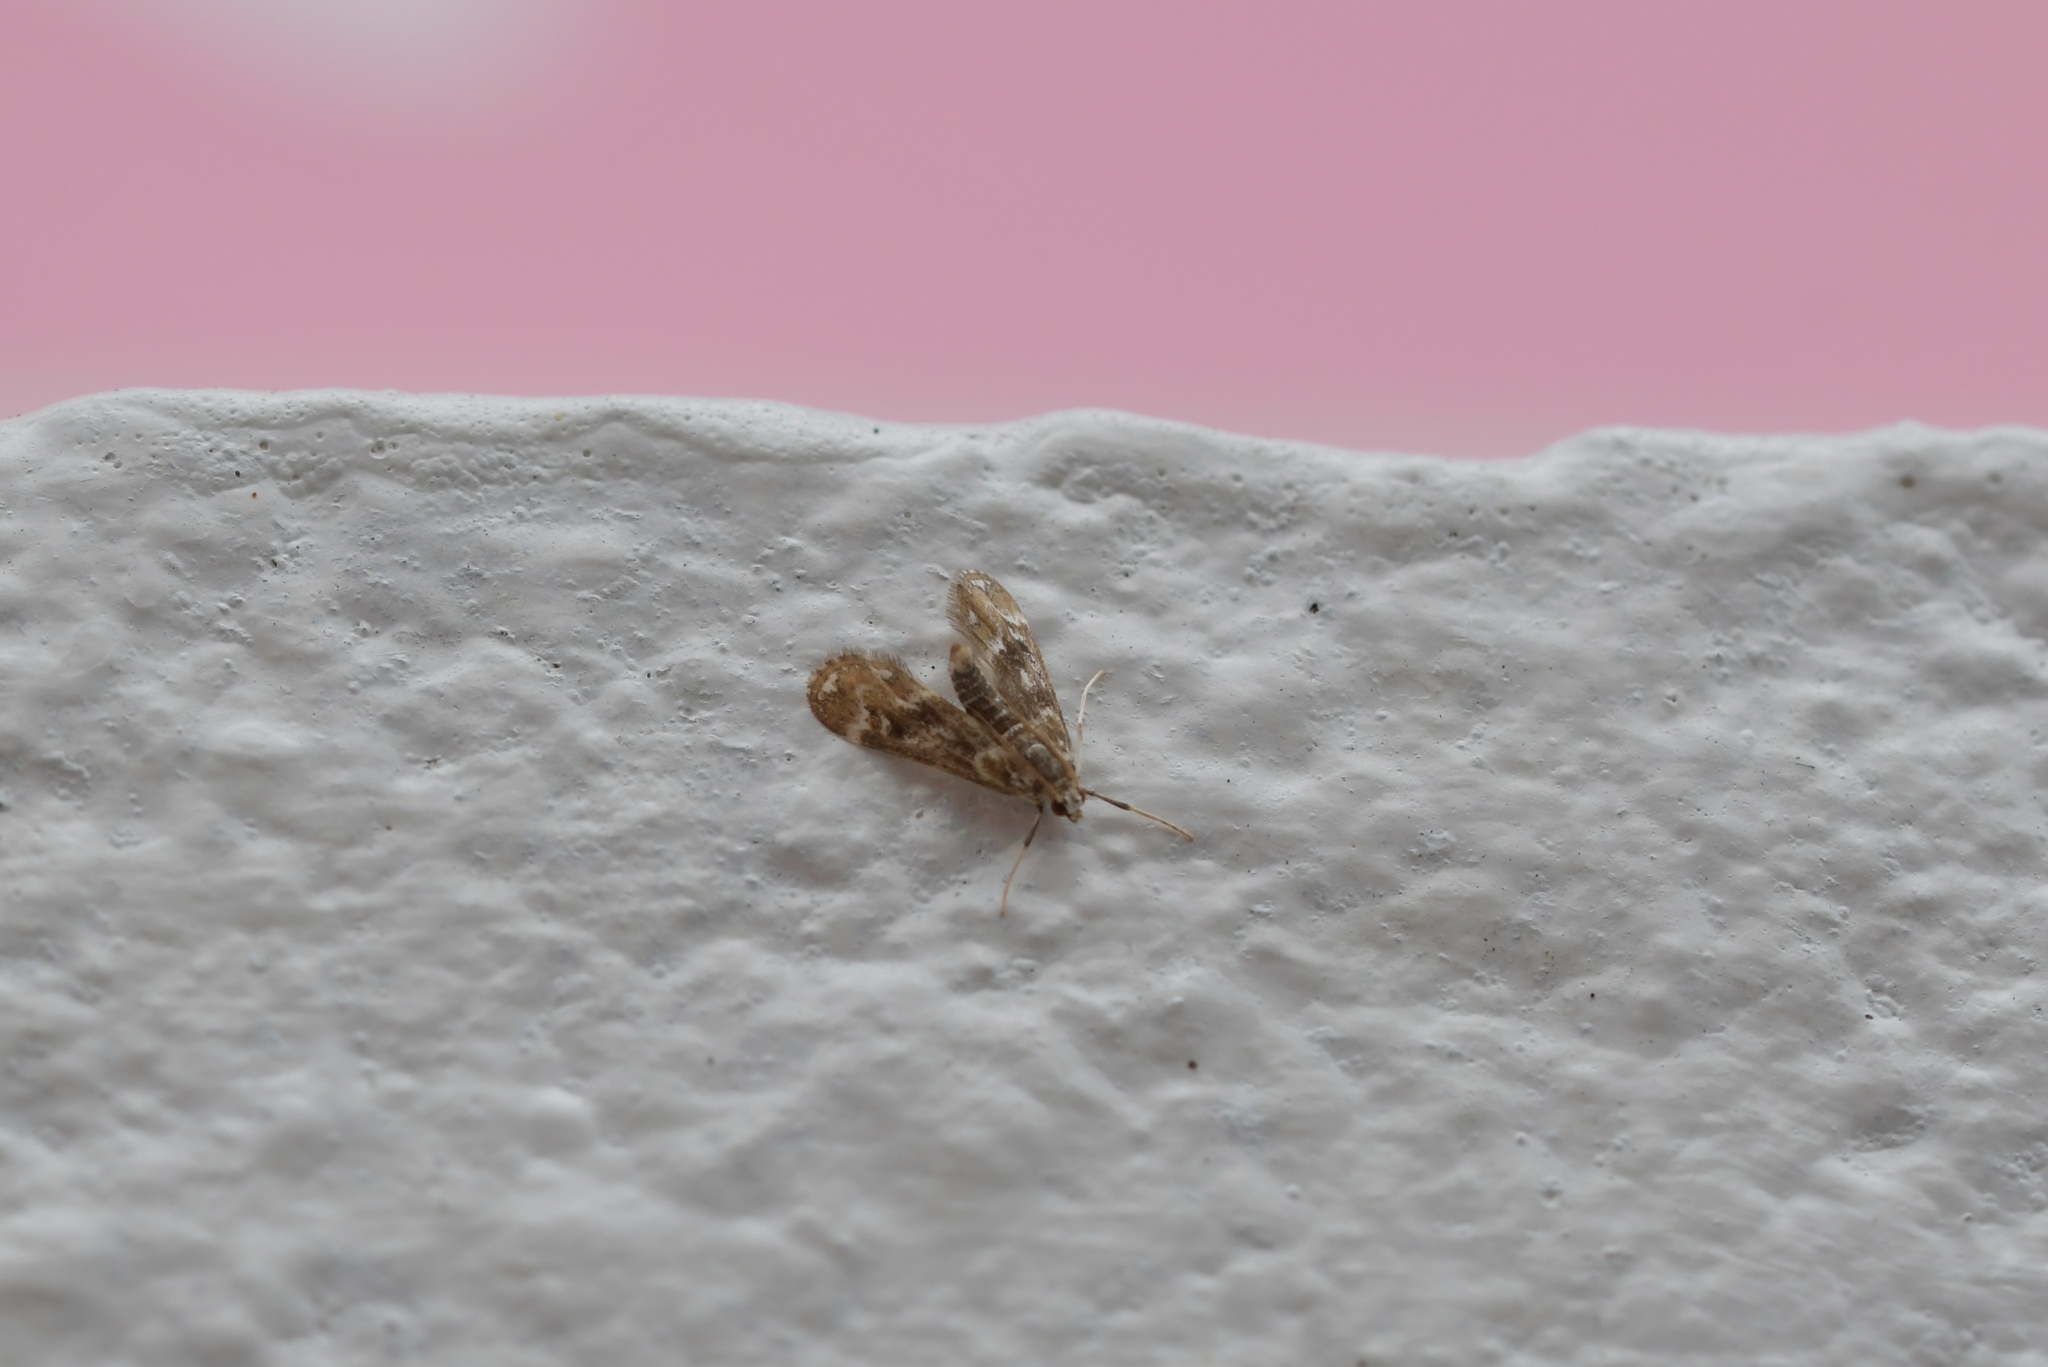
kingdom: Animalia
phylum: Arthropoda
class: Insecta
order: Lepidoptera
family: Crambidae
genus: Hygraula
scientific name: Hygraula nitens
